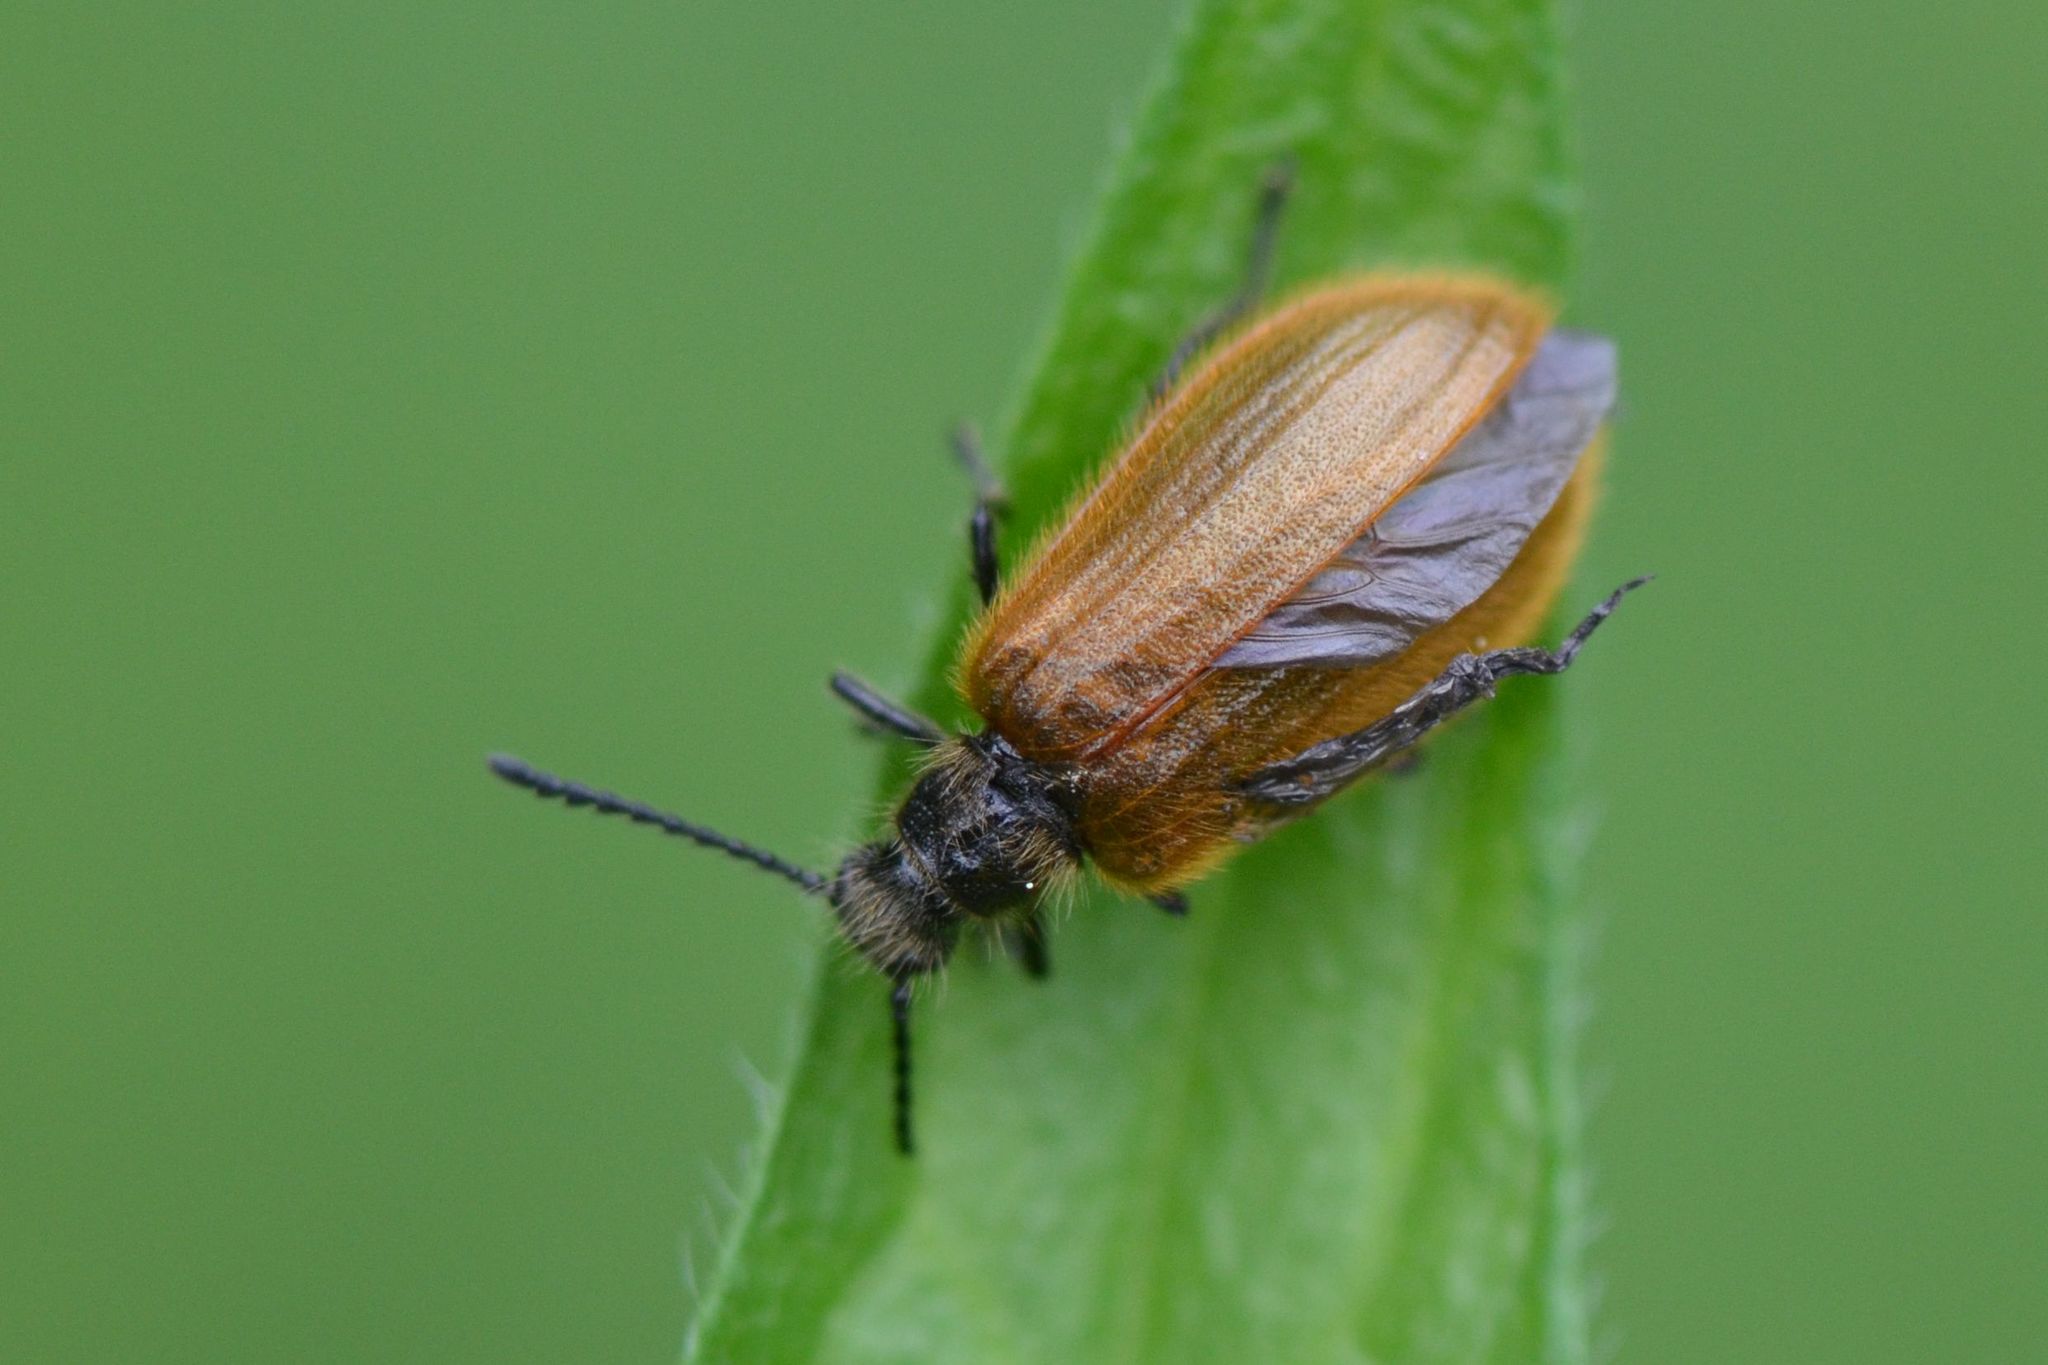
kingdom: Animalia
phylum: Arthropoda
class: Insecta
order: Coleoptera
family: Tenebrionidae
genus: Lagria
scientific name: Lagria hirta
